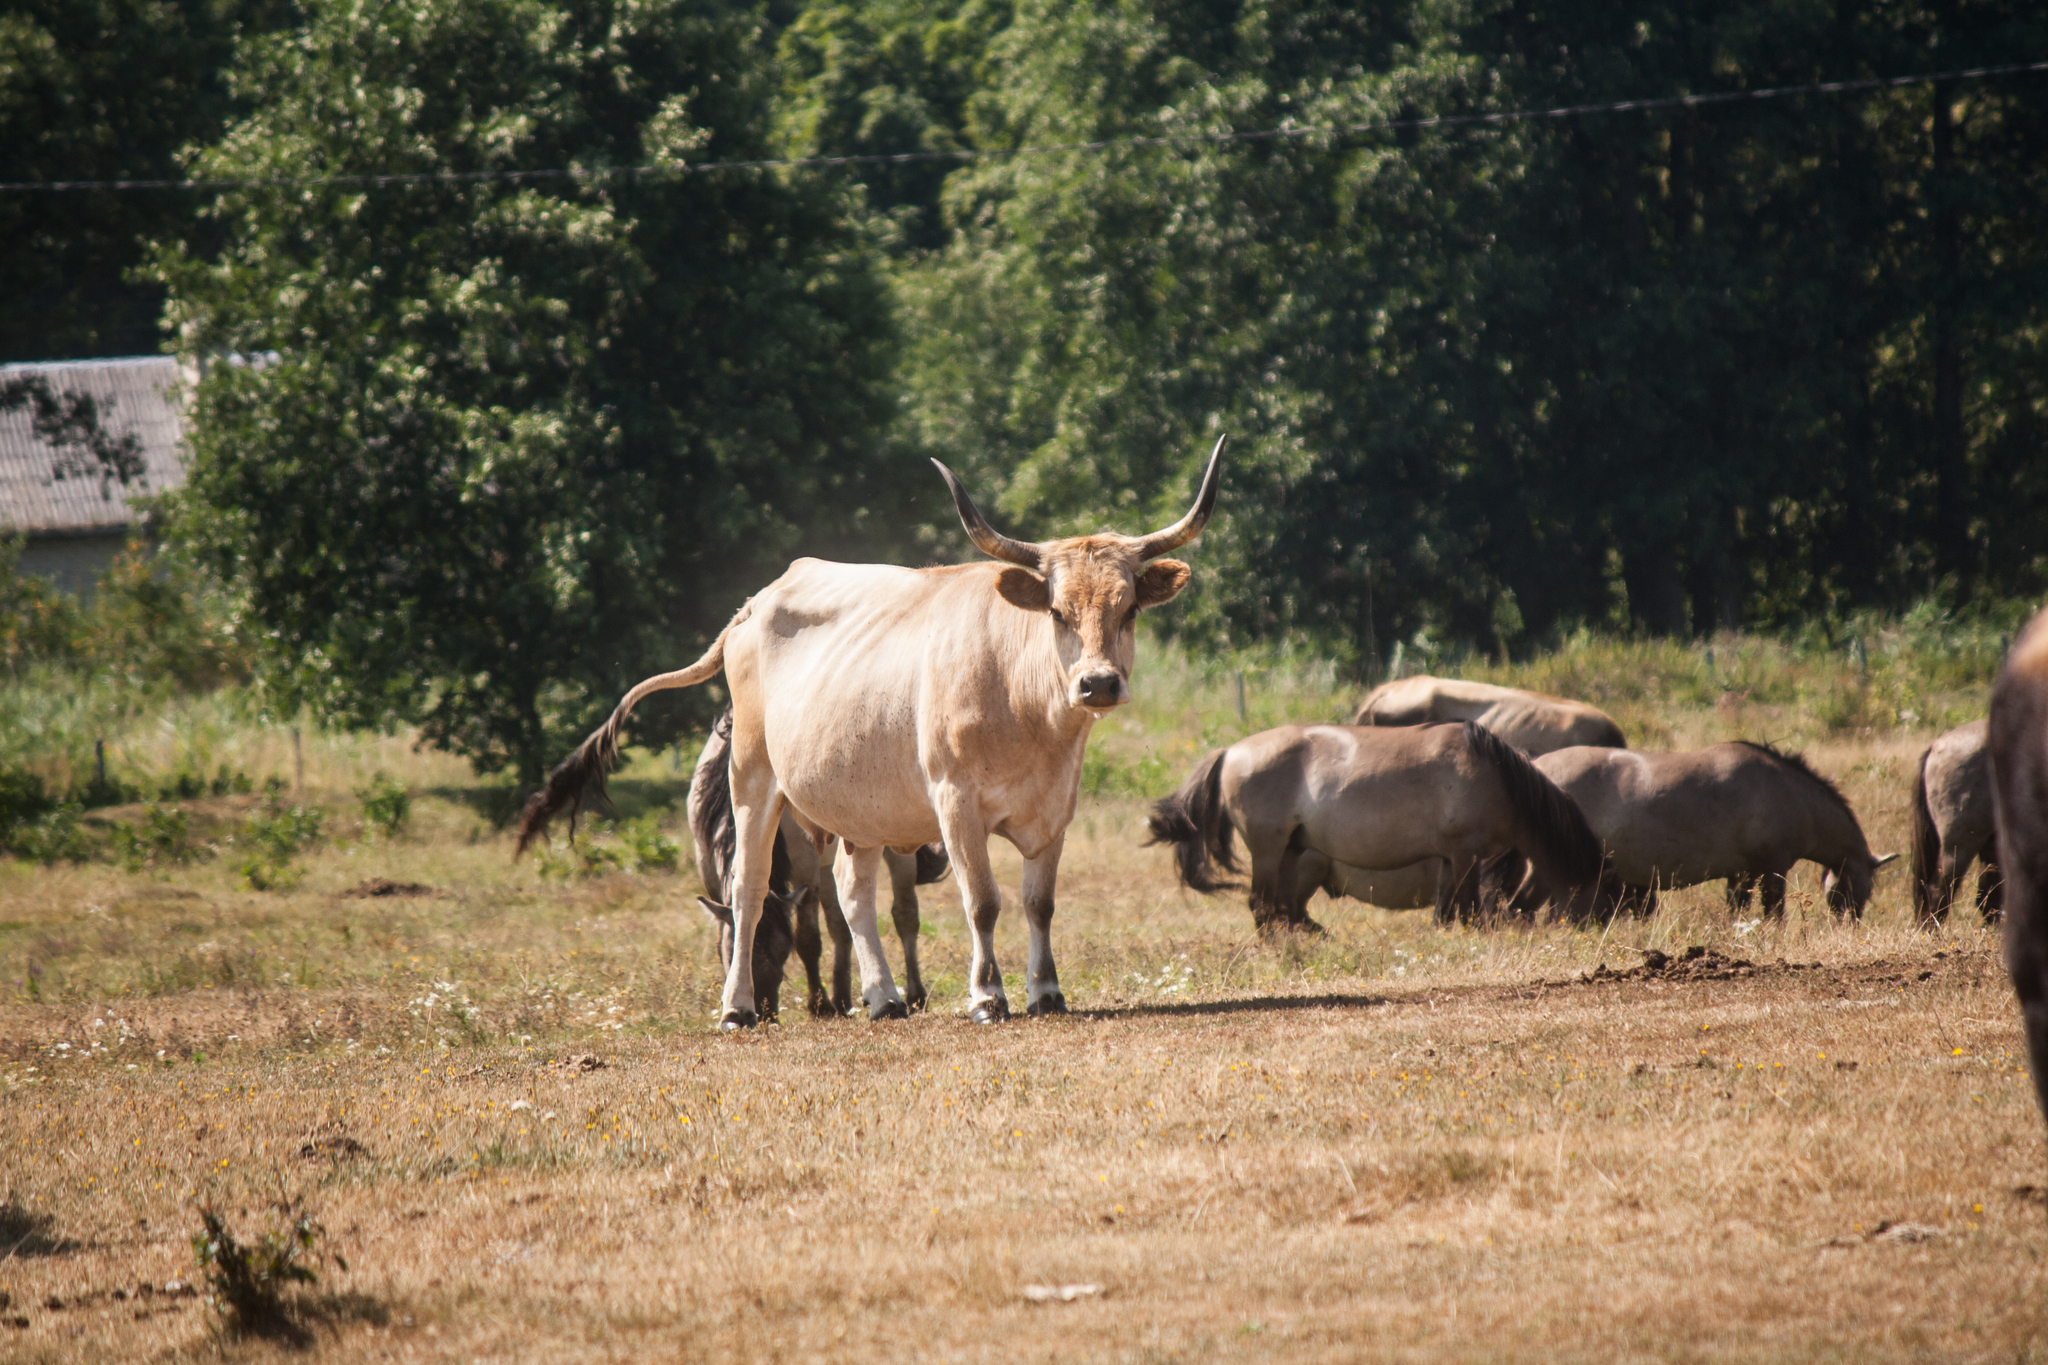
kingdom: Animalia
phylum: Chordata
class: Mammalia
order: Artiodactyla
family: Bovidae
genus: Bos
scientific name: Bos taurus
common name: Domesticated cattle
